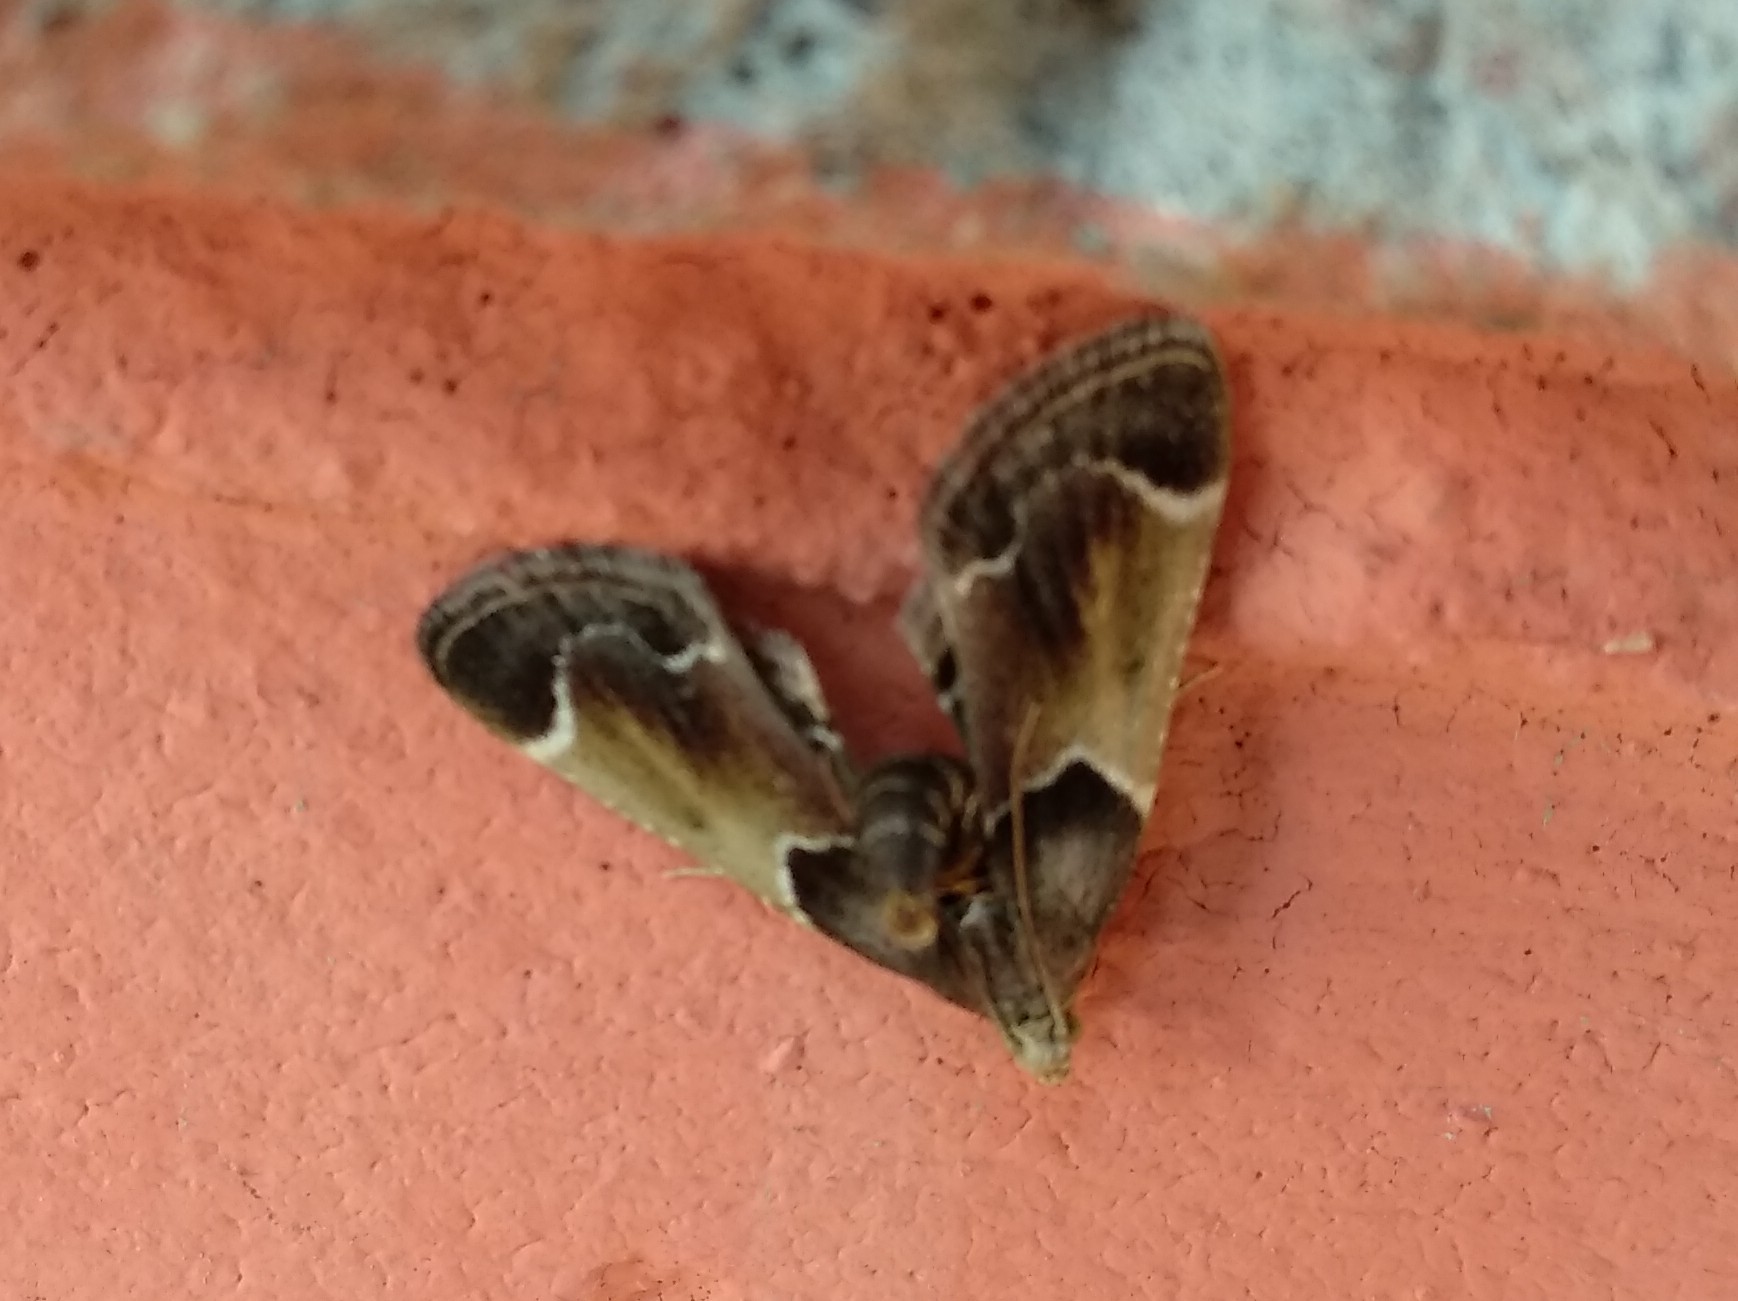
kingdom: Animalia
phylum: Arthropoda
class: Insecta
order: Lepidoptera
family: Pyralidae
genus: Pyralis
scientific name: Pyralis farinalis
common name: Meal moth
